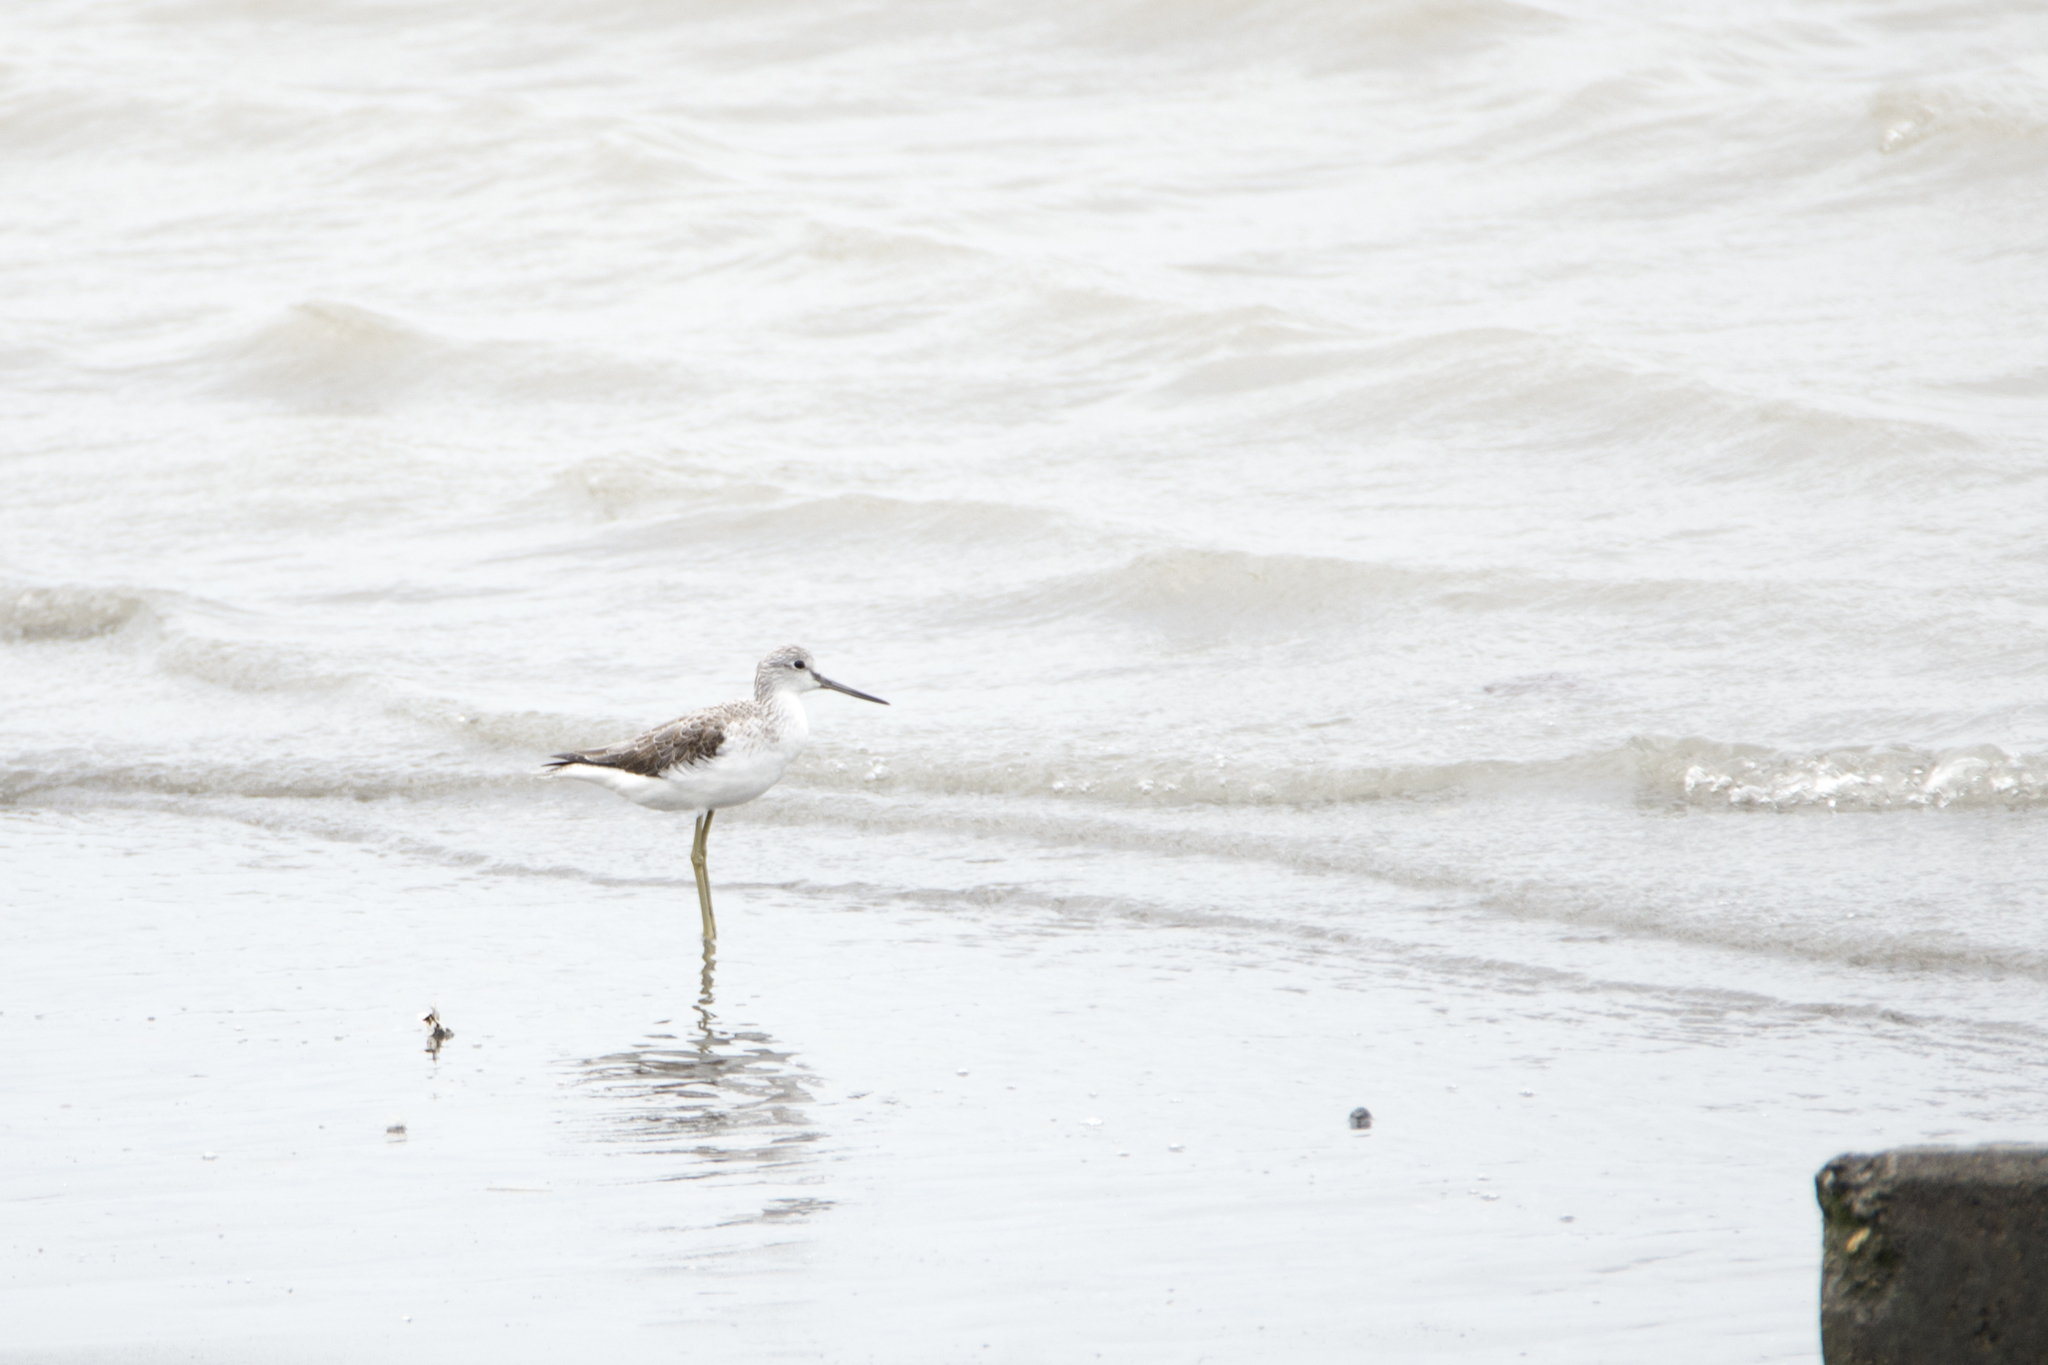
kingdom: Animalia
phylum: Chordata
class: Aves
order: Charadriiformes
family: Scolopacidae
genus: Tringa
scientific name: Tringa nebularia
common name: Common greenshank
